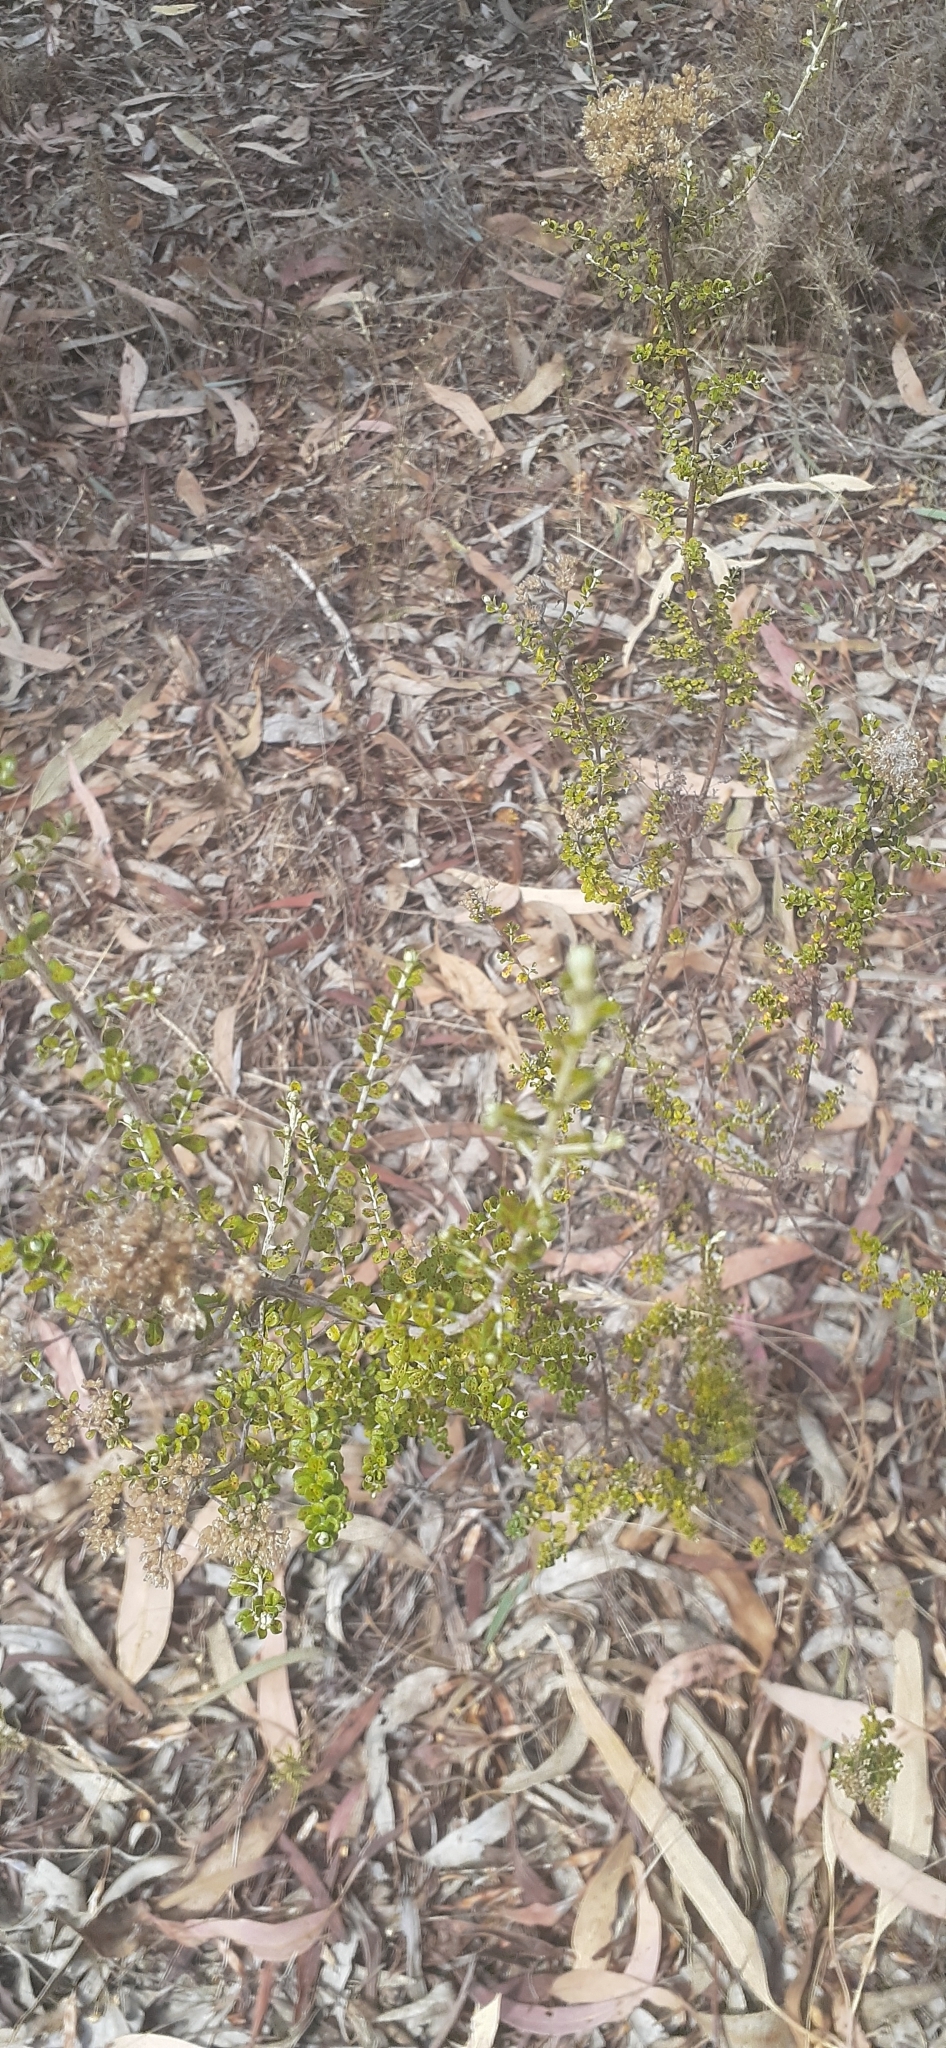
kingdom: Plantae
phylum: Tracheophyta
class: Magnoliopsida
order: Asterales
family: Asteraceae
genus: Ozothamnus
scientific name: Ozothamnus obcordatus
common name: Grey everlasting
